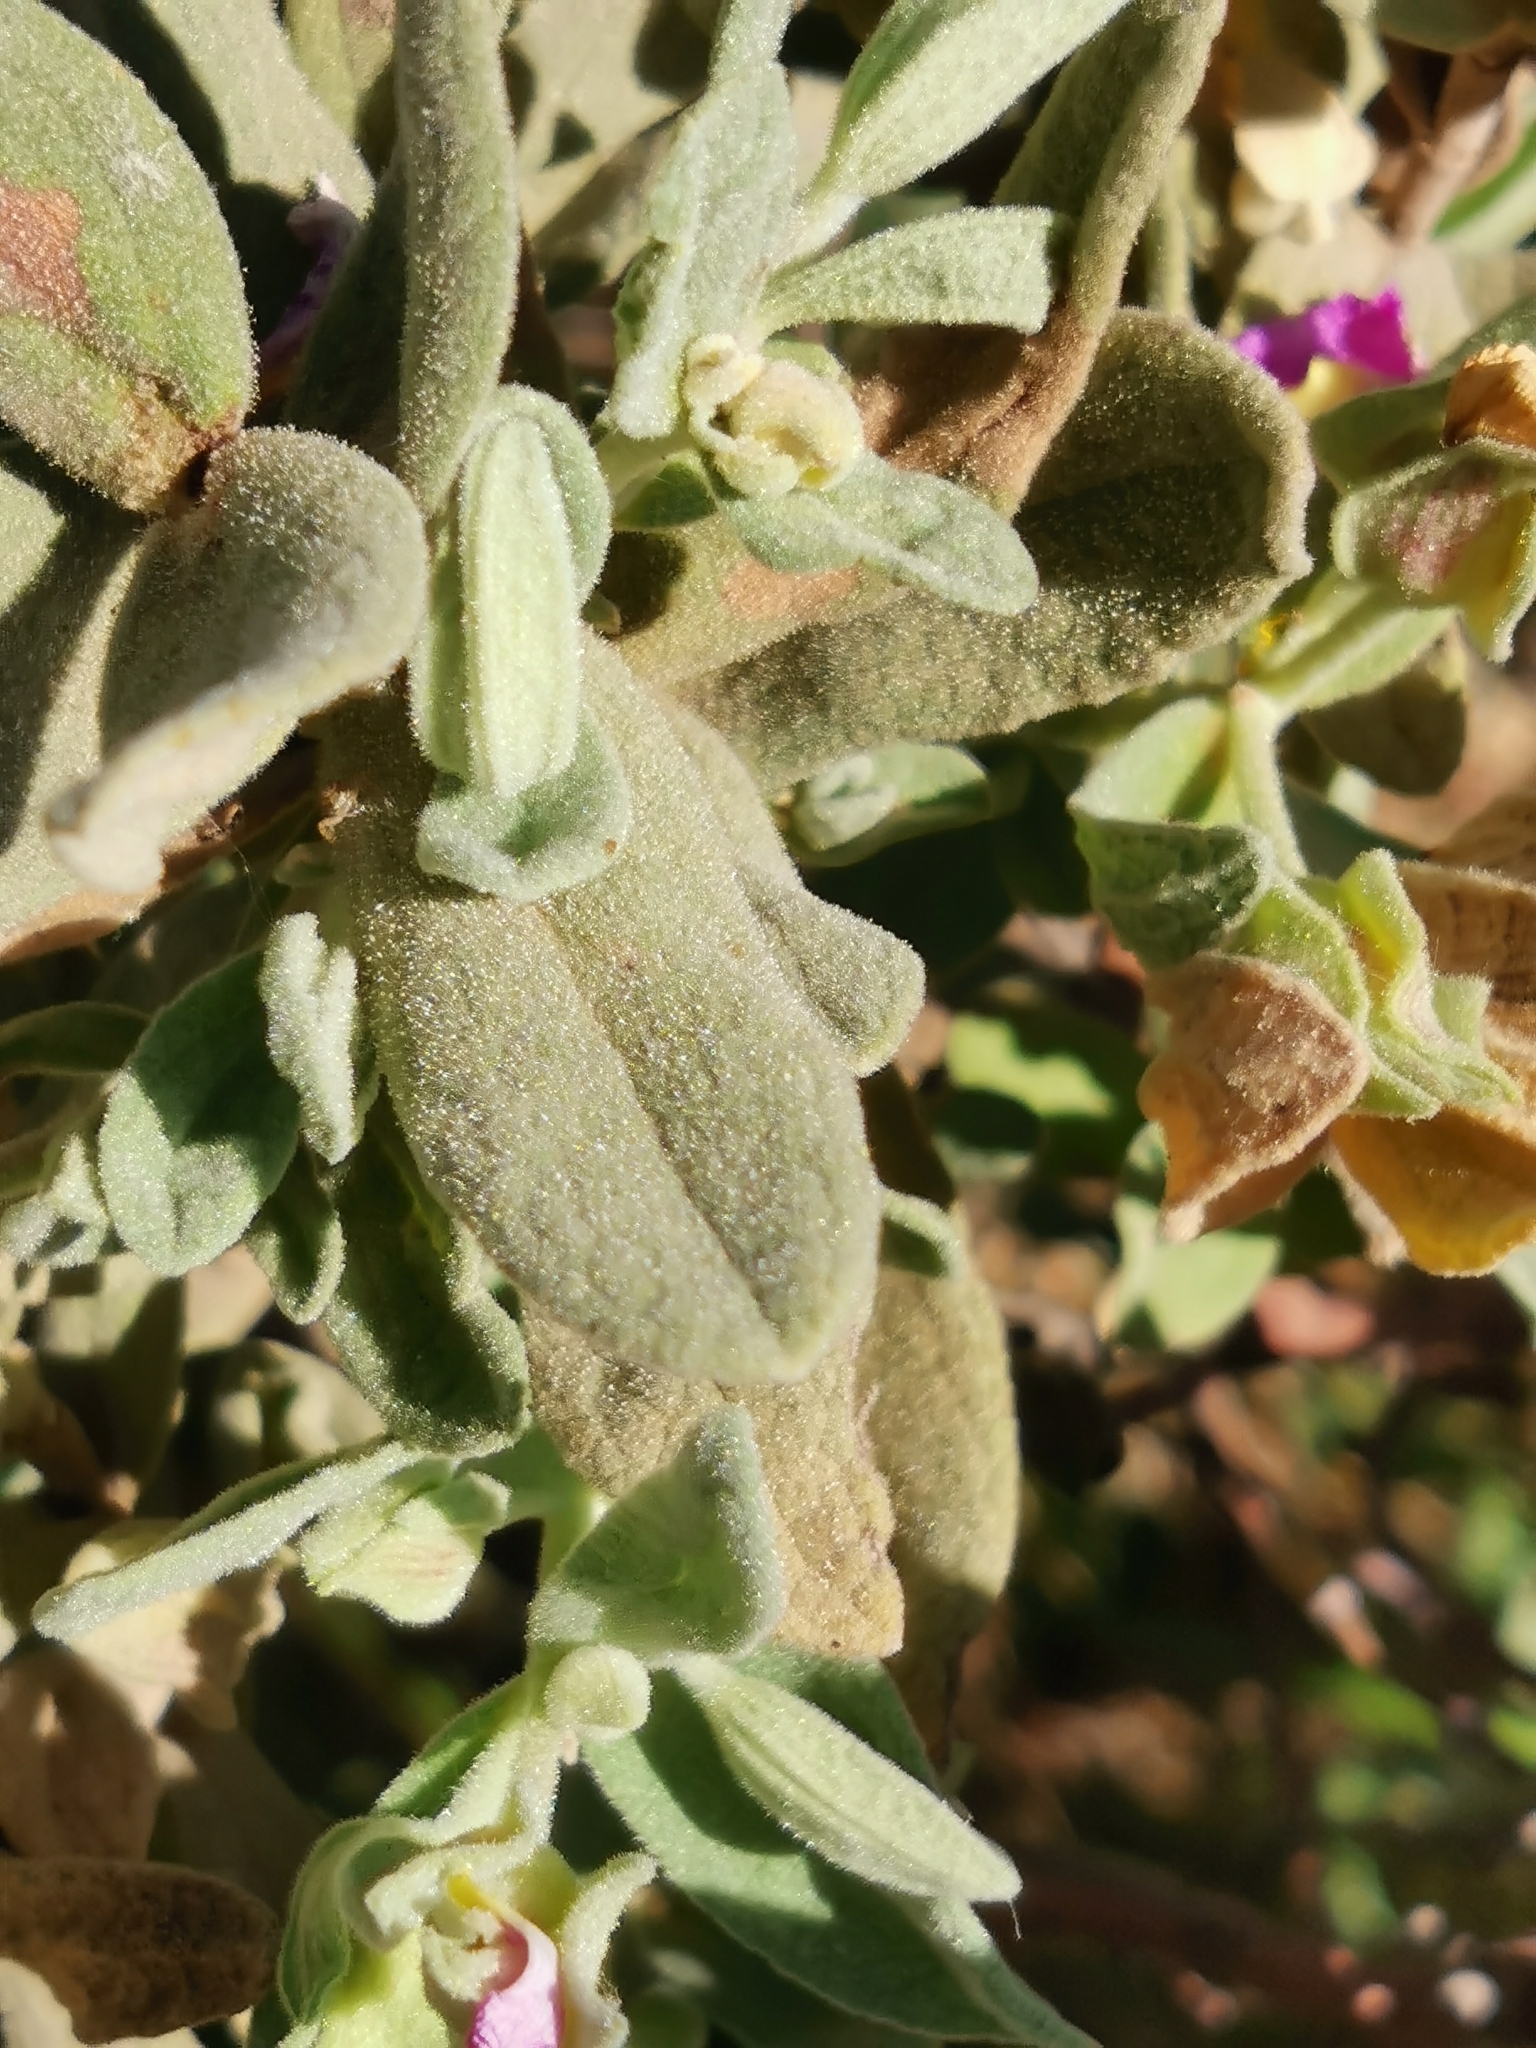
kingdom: Plantae
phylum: Tracheophyta
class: Magnoliopsida
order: Malvales
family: Cistaceae
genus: Cistus
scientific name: Cistus albidus
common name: White-leaf rock-rose
